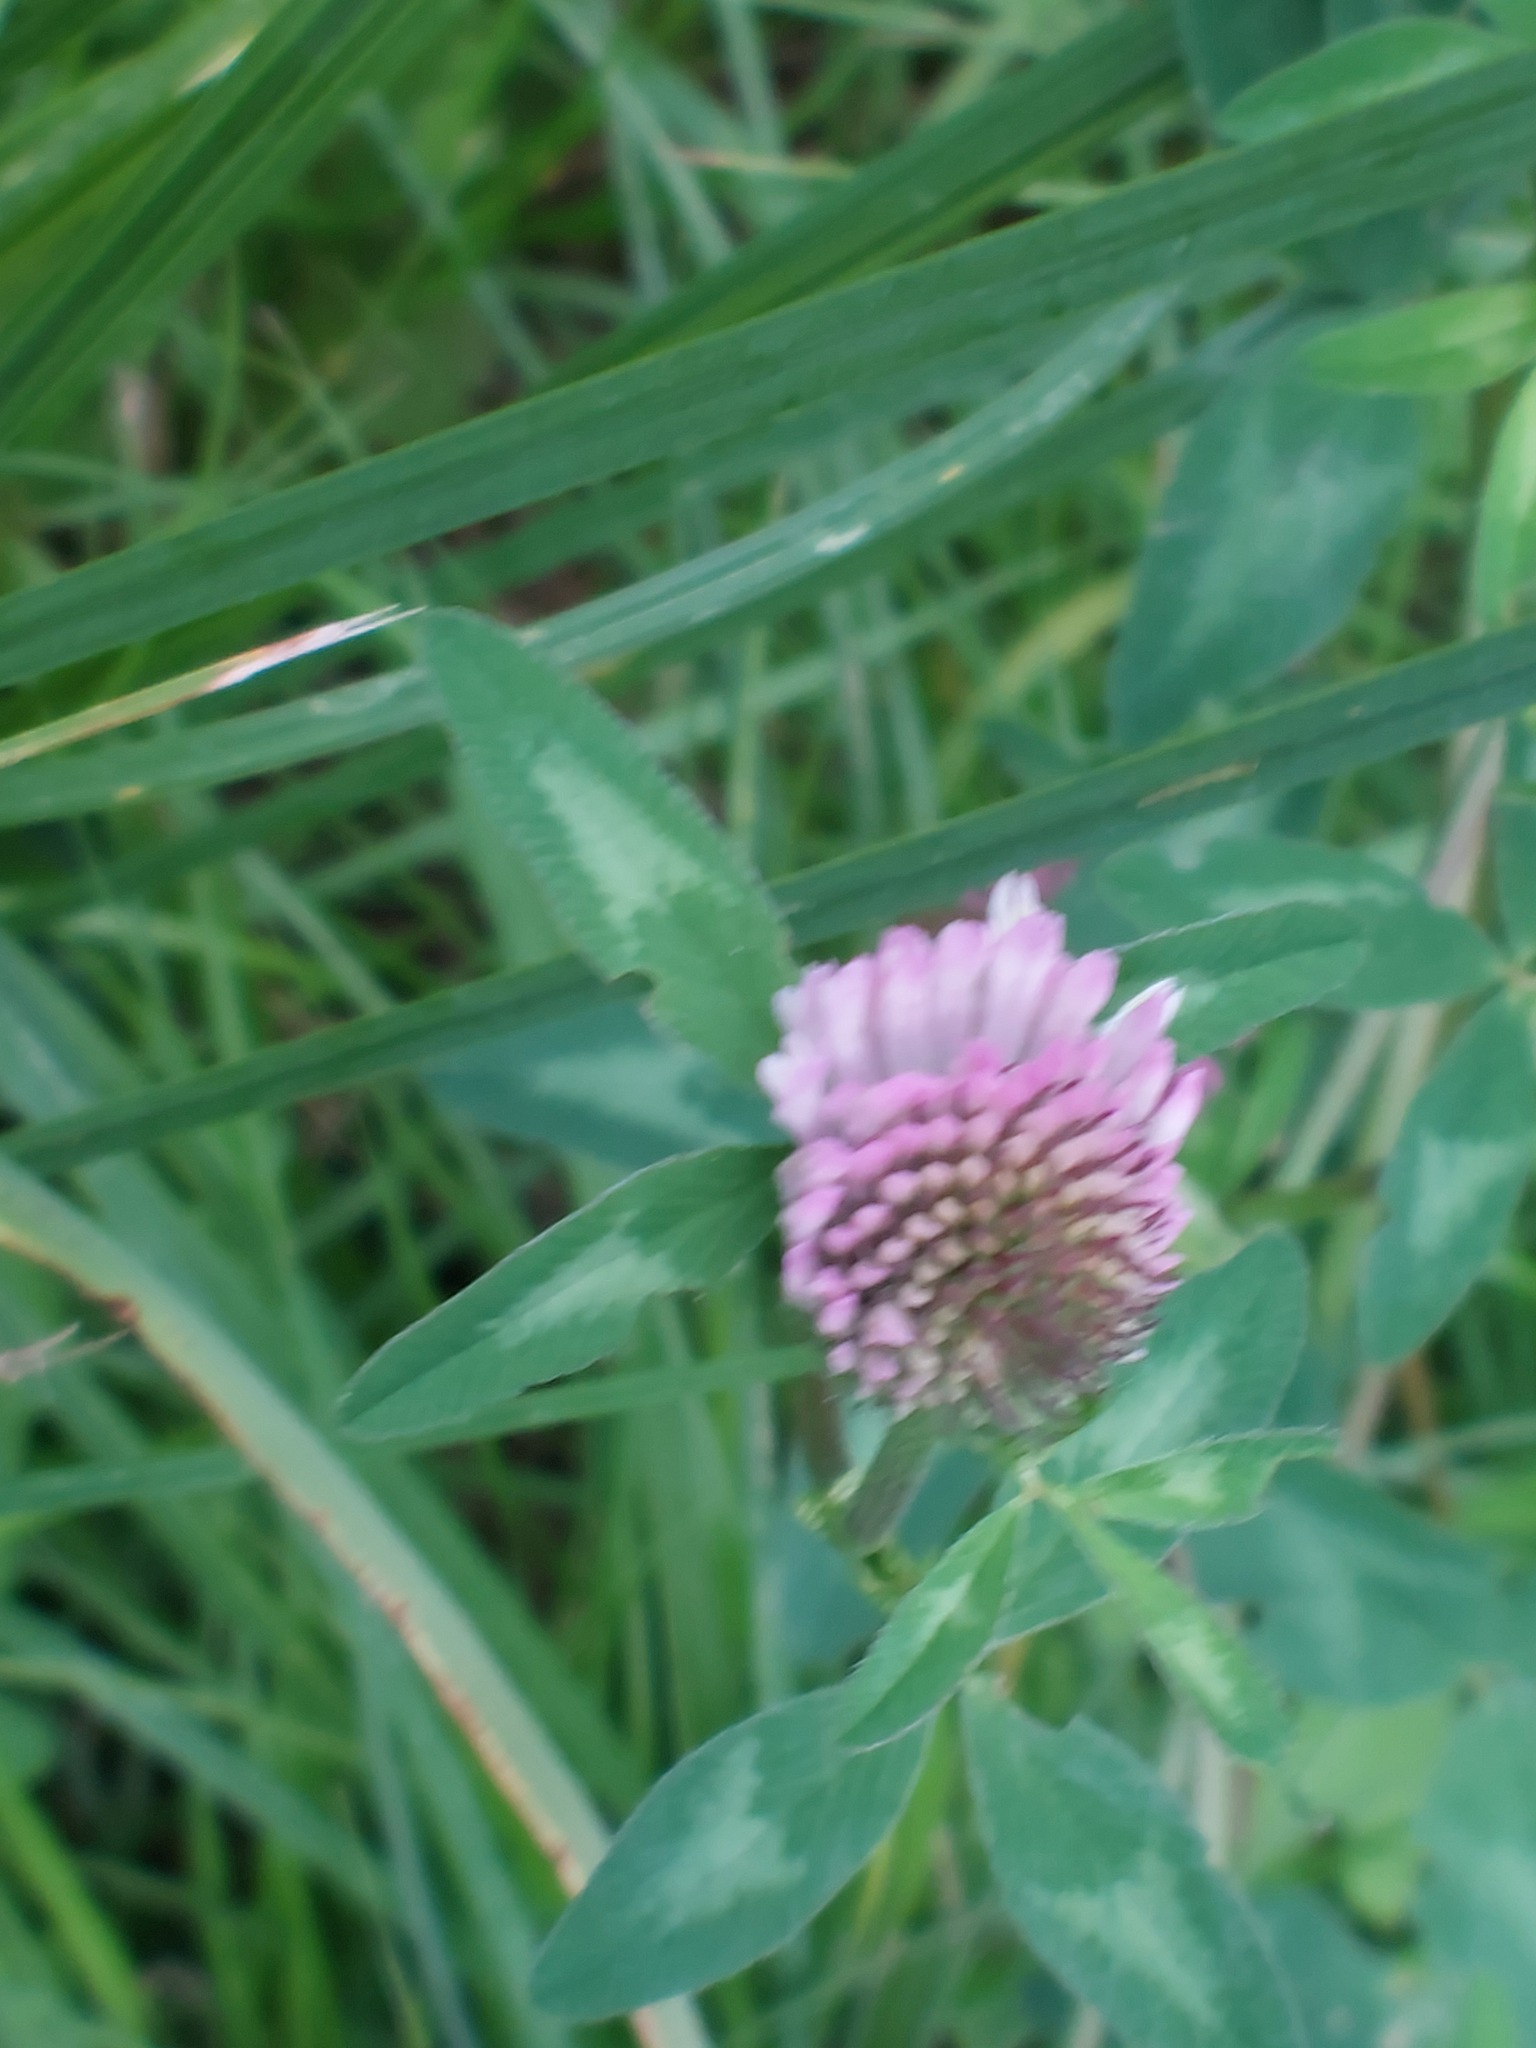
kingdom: Plantae
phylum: Tracheophyta
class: Magnoliopsida
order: Fabales
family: Fabaceae
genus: Trifolium
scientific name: Trifolium pratense
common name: Red clover
